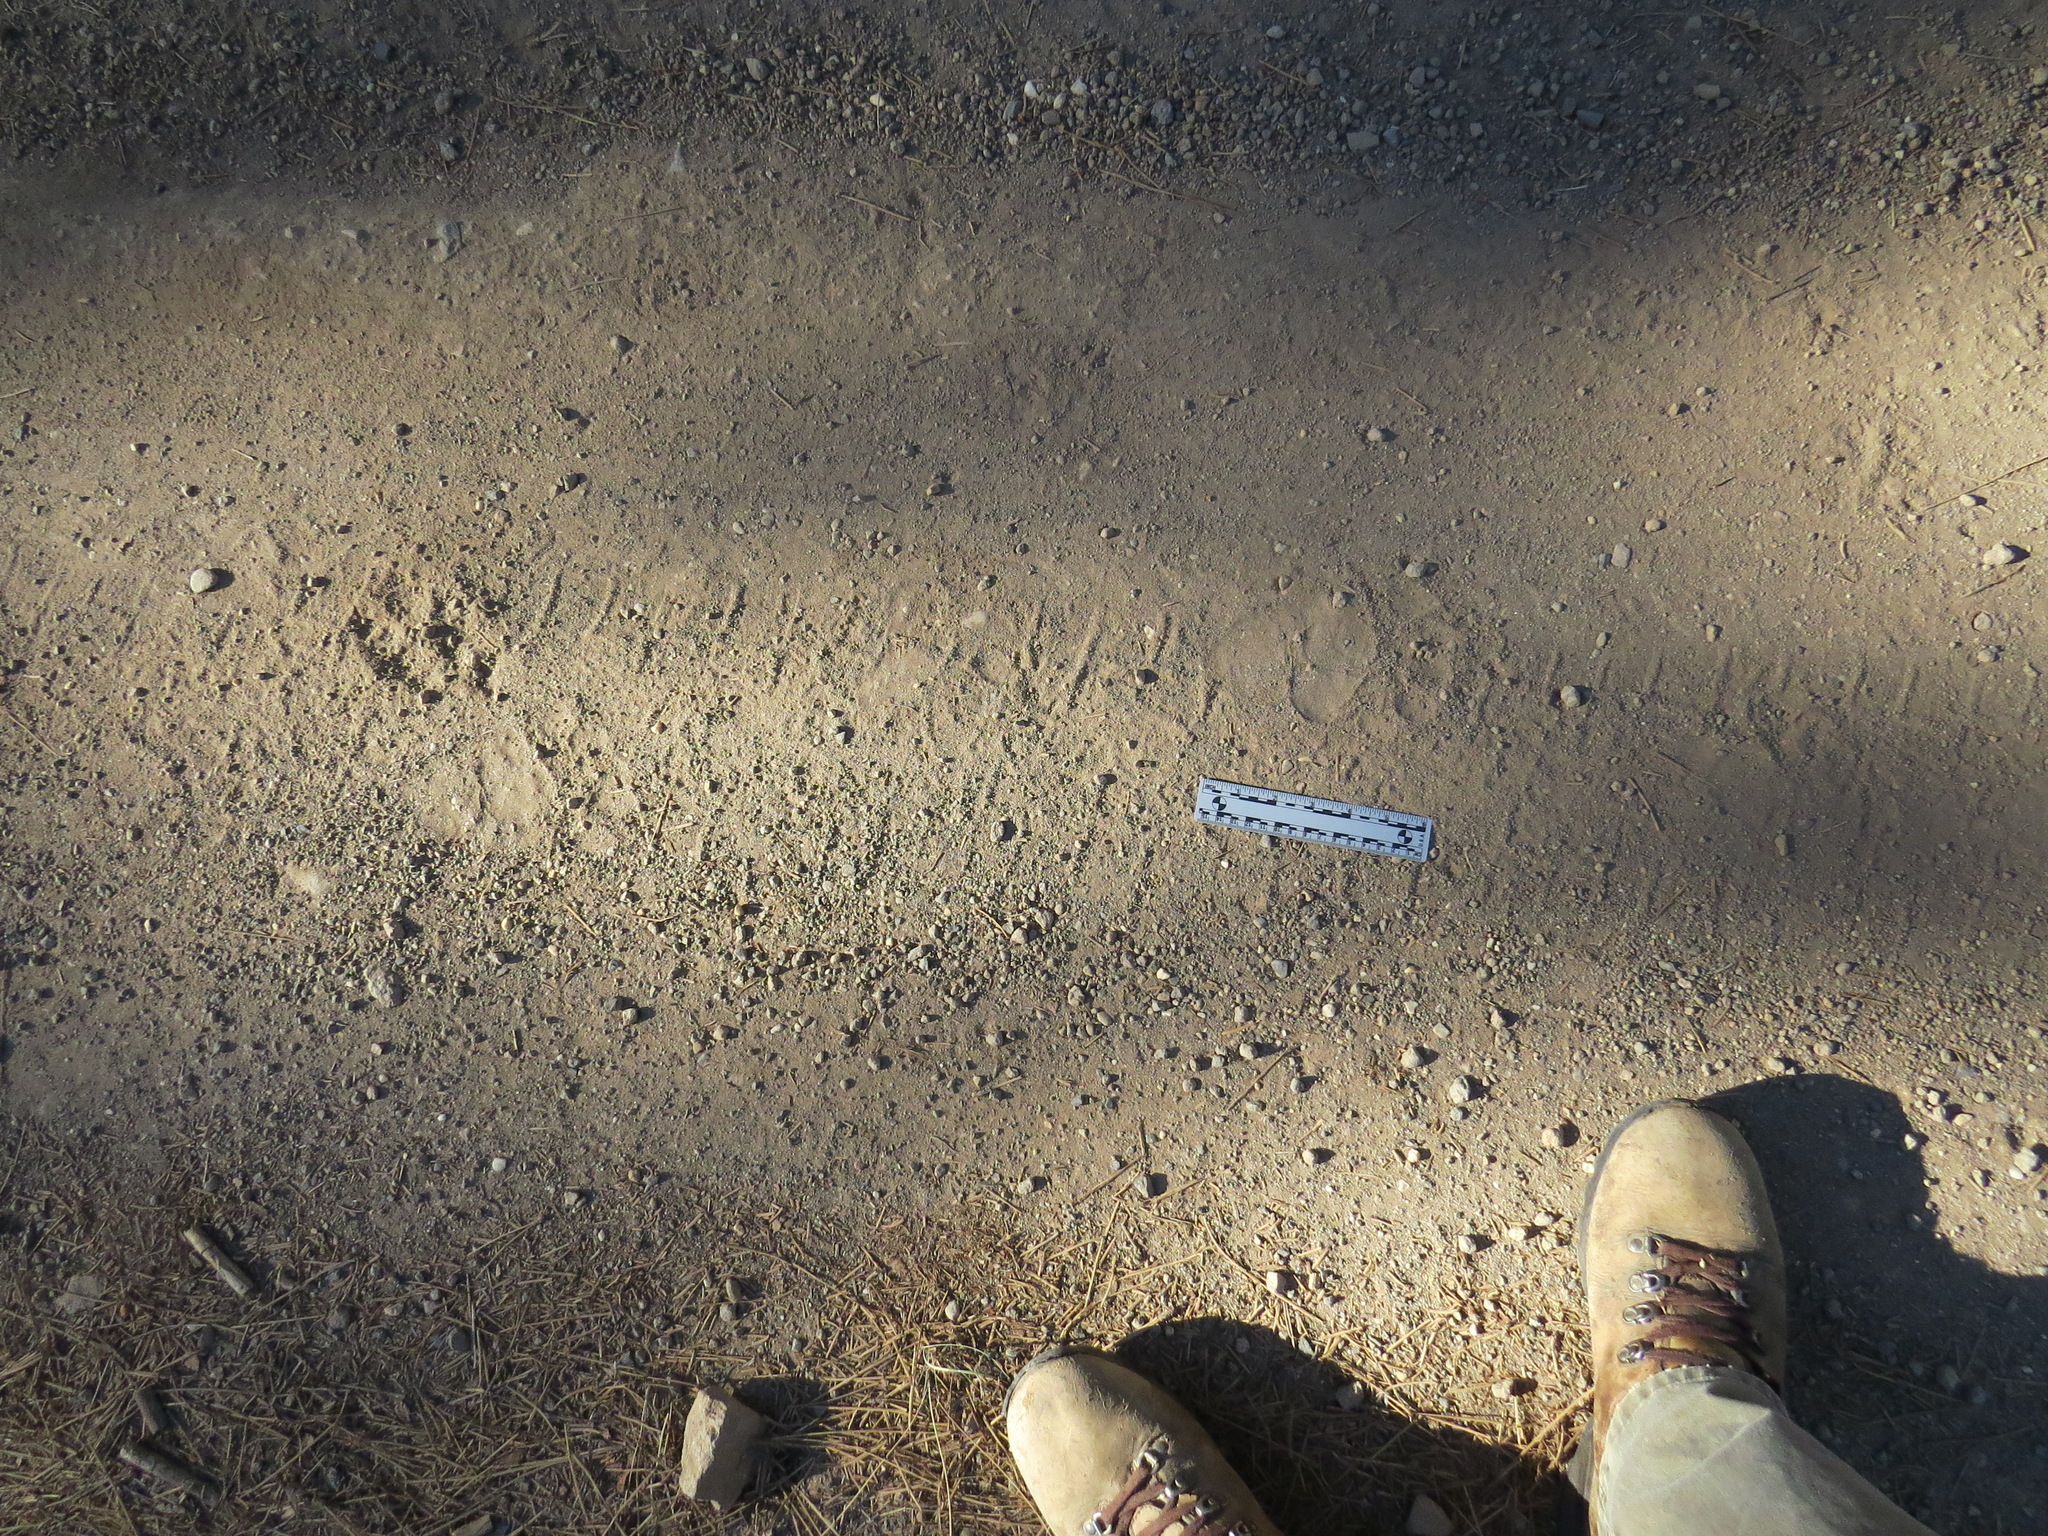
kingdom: Animalia
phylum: Chordata
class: Mammalia
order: Carnivora
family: Ursidae
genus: Ursus
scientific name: Ursus americanus
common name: American black bear
